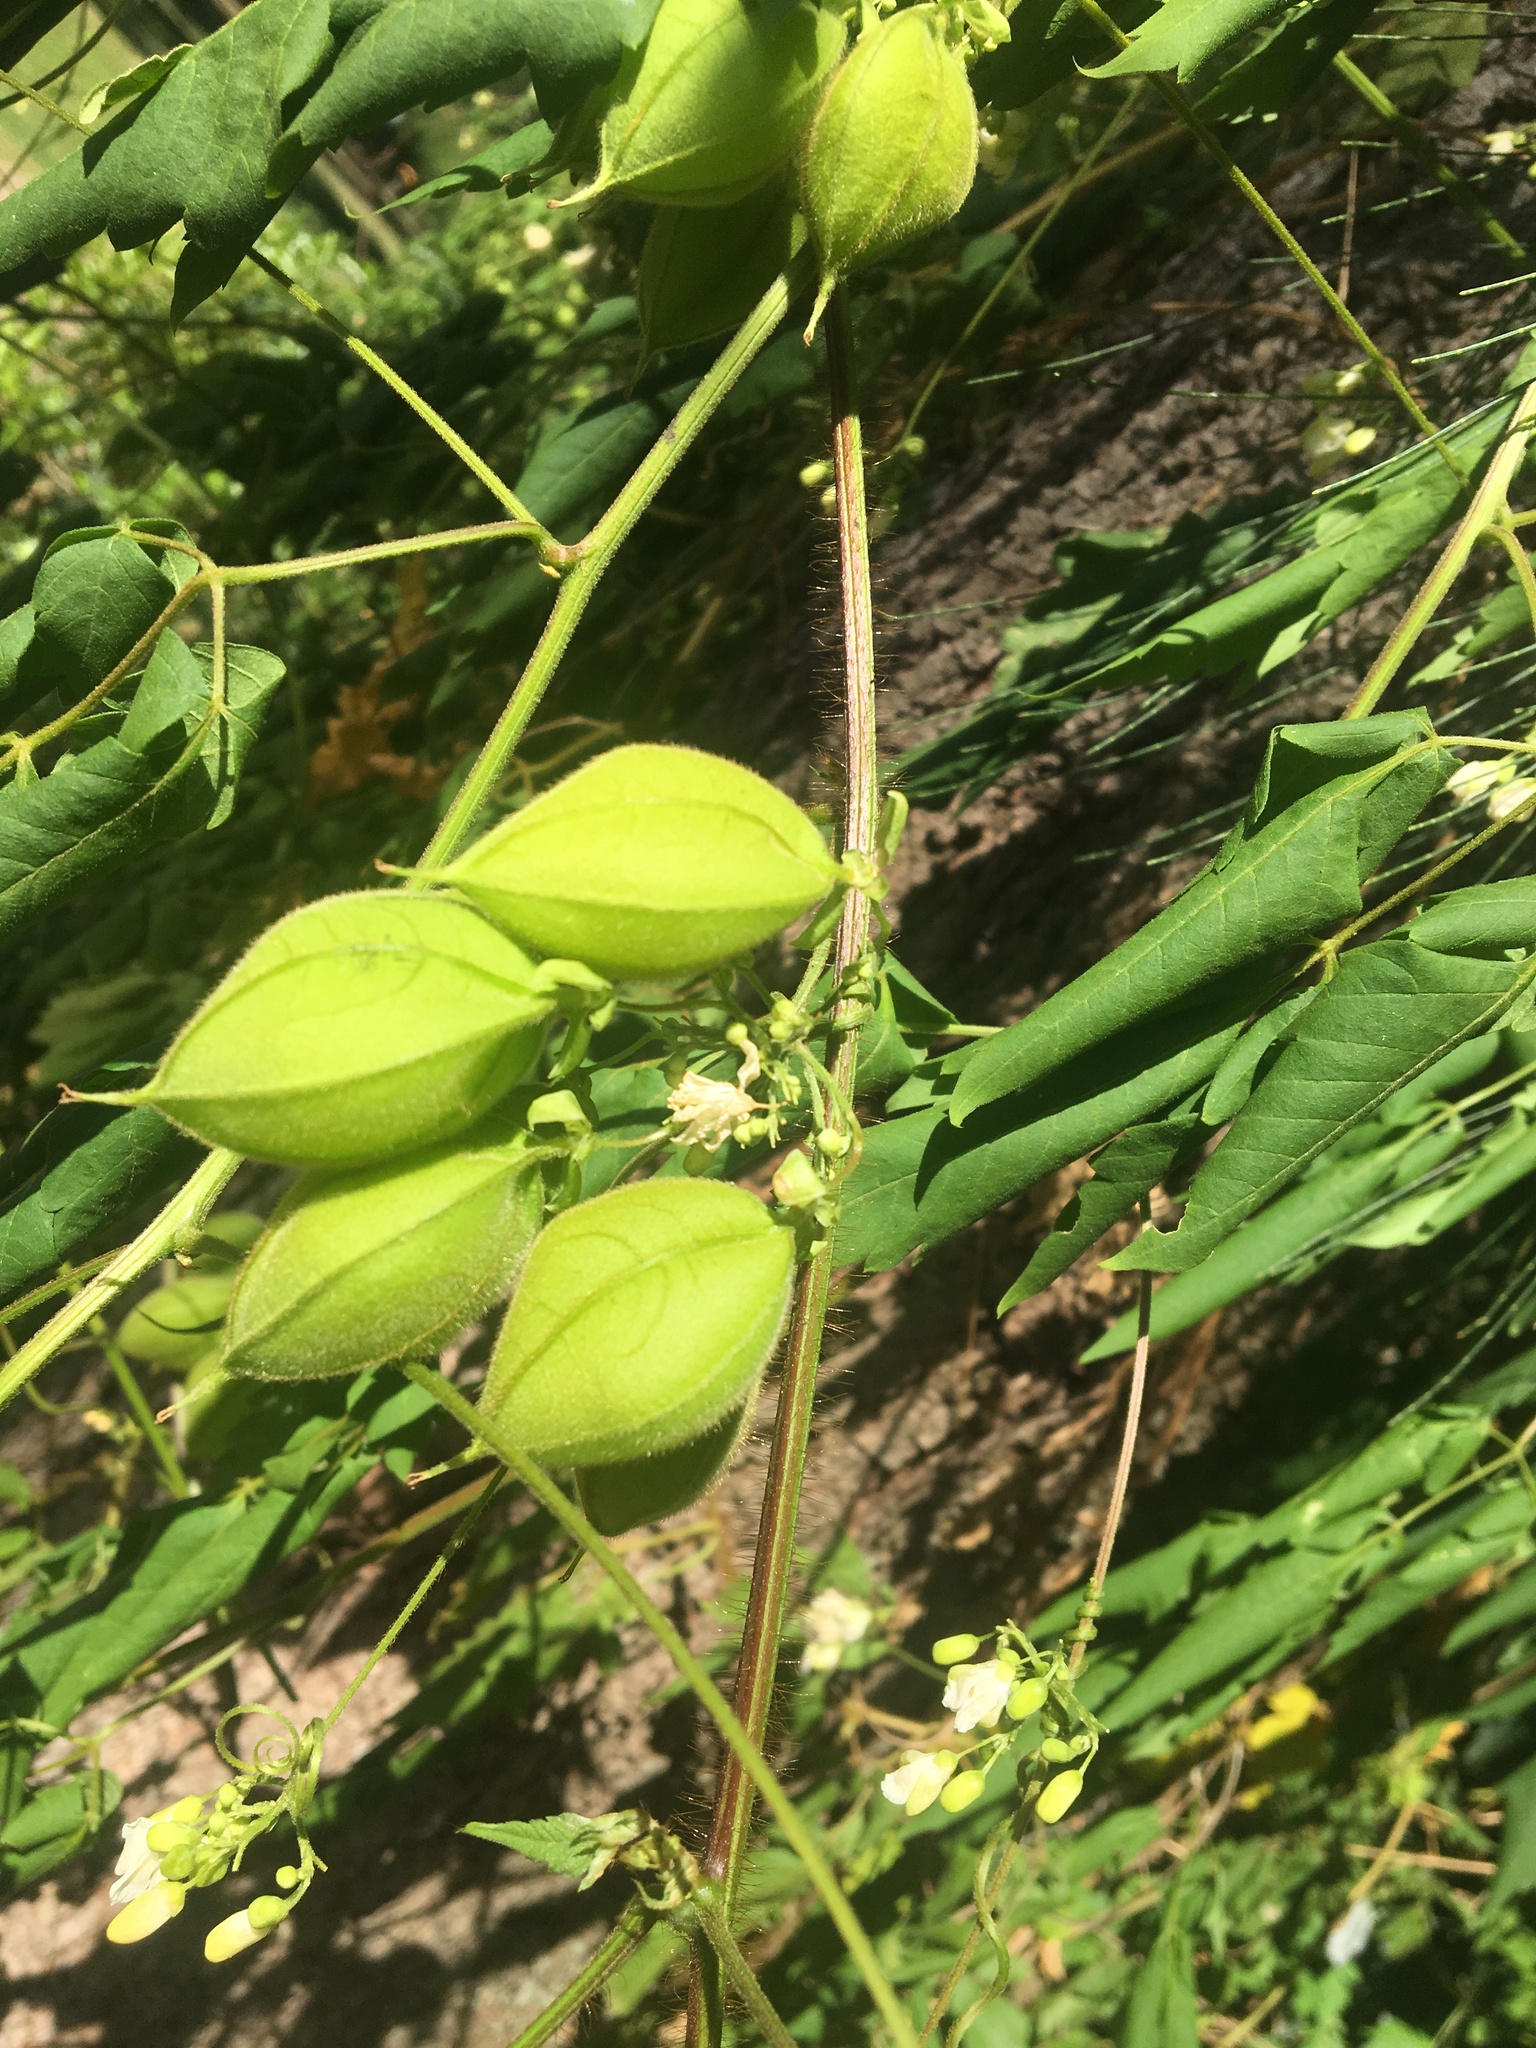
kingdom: Plantae
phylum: Tracheophyta
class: Magnoliopsida
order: Sapindales
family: Sapindaceae
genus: Cardiospermum
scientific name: Cardiospermum grandiflorum
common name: Balloon vine
